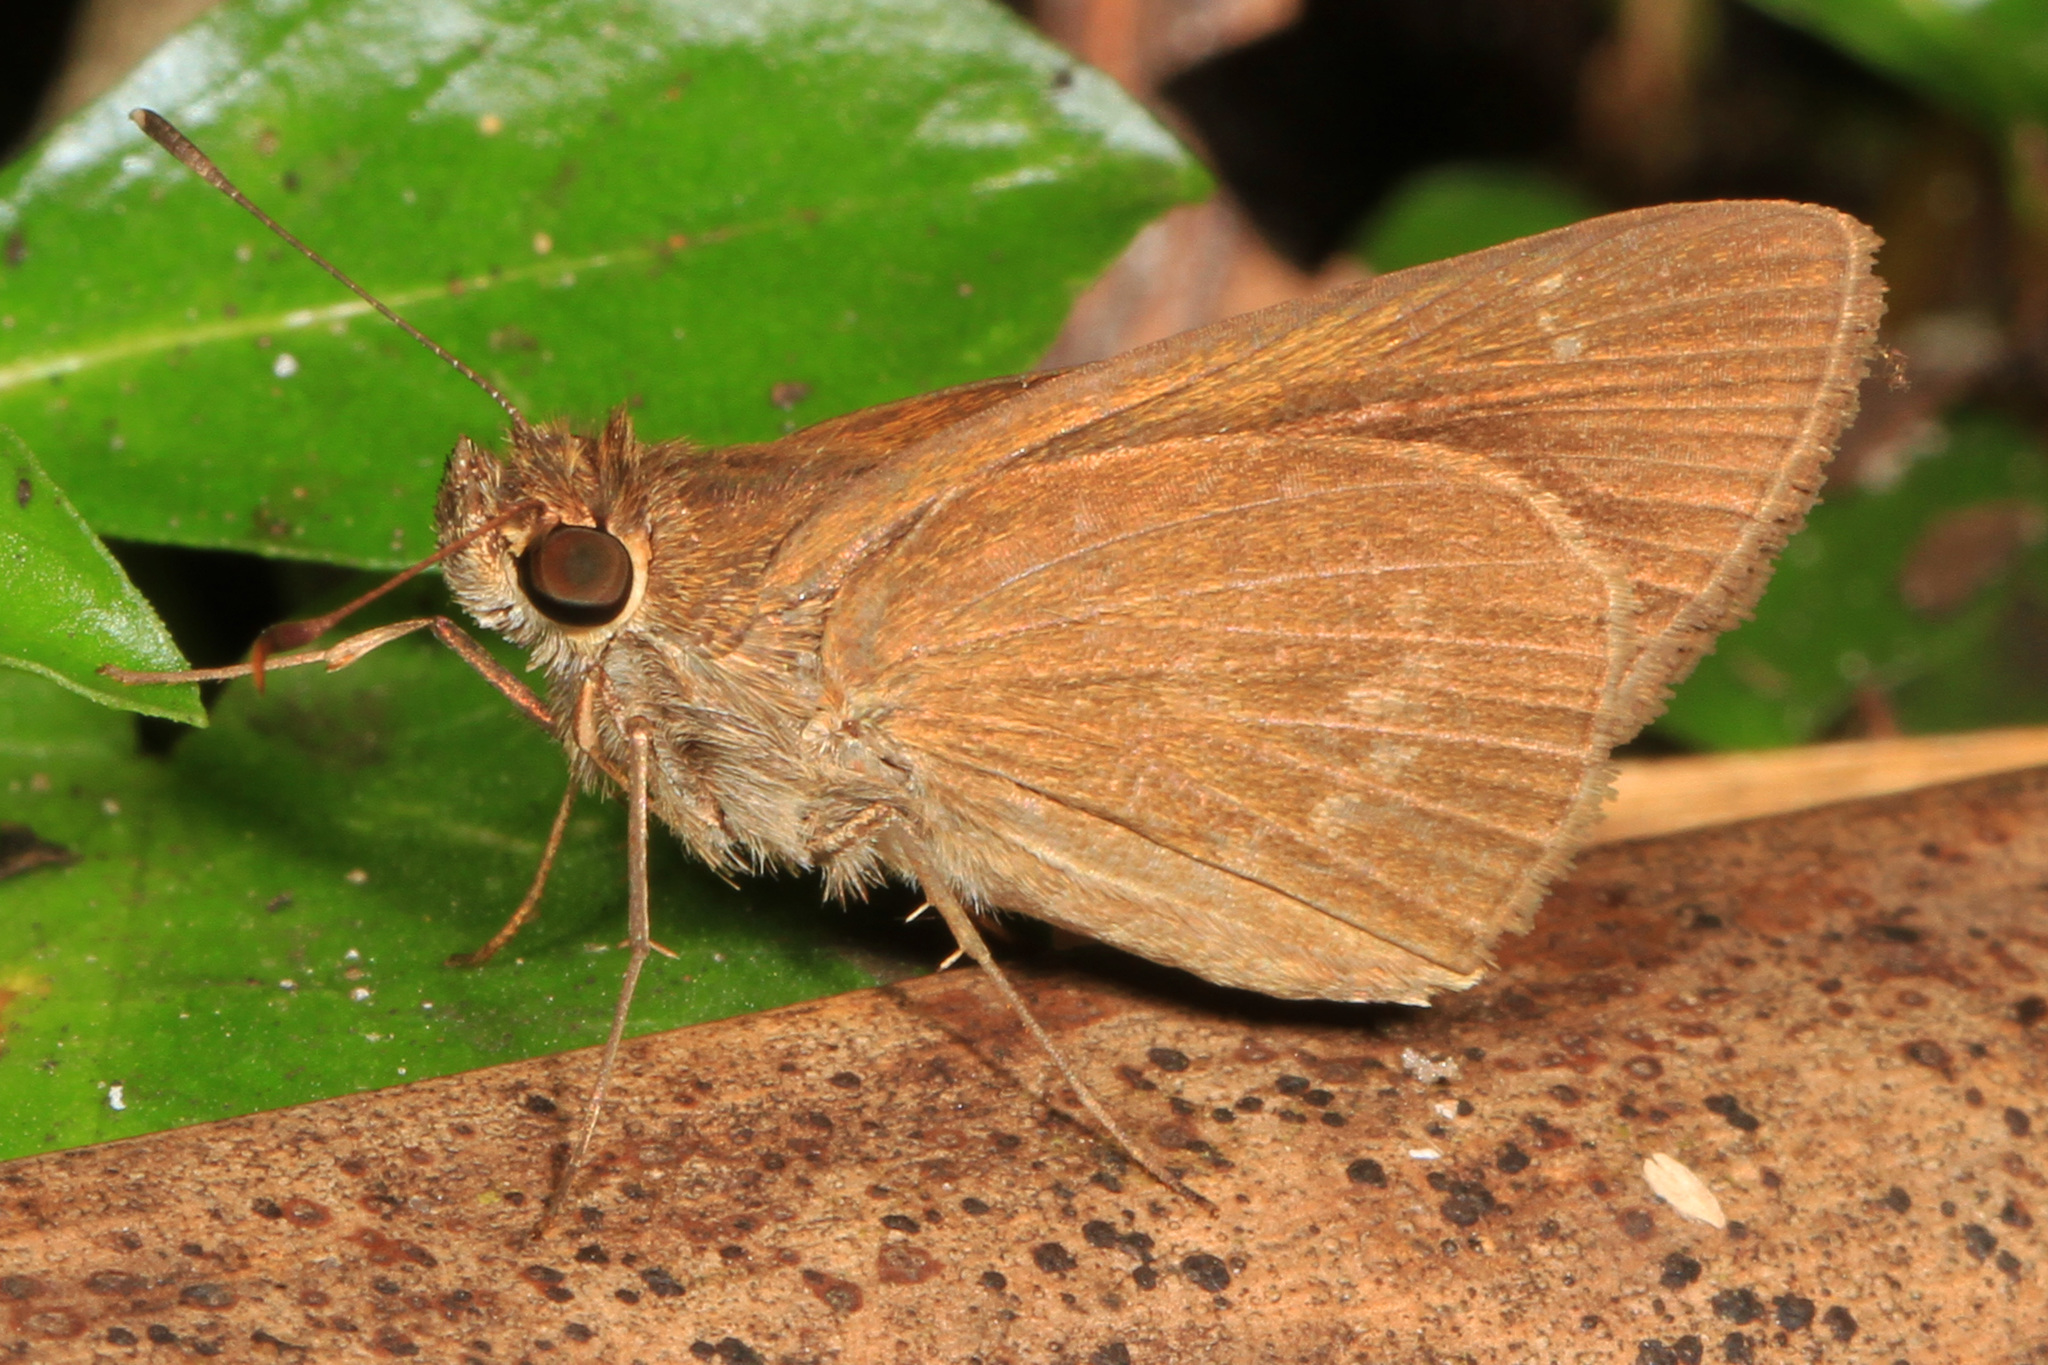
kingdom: Animalia
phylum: Arthropoda
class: Insecta
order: Lepidoptera
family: Hesperiidae
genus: Cymaenes
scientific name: Cymaenes tripunctus
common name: Dingy dotted skipper
